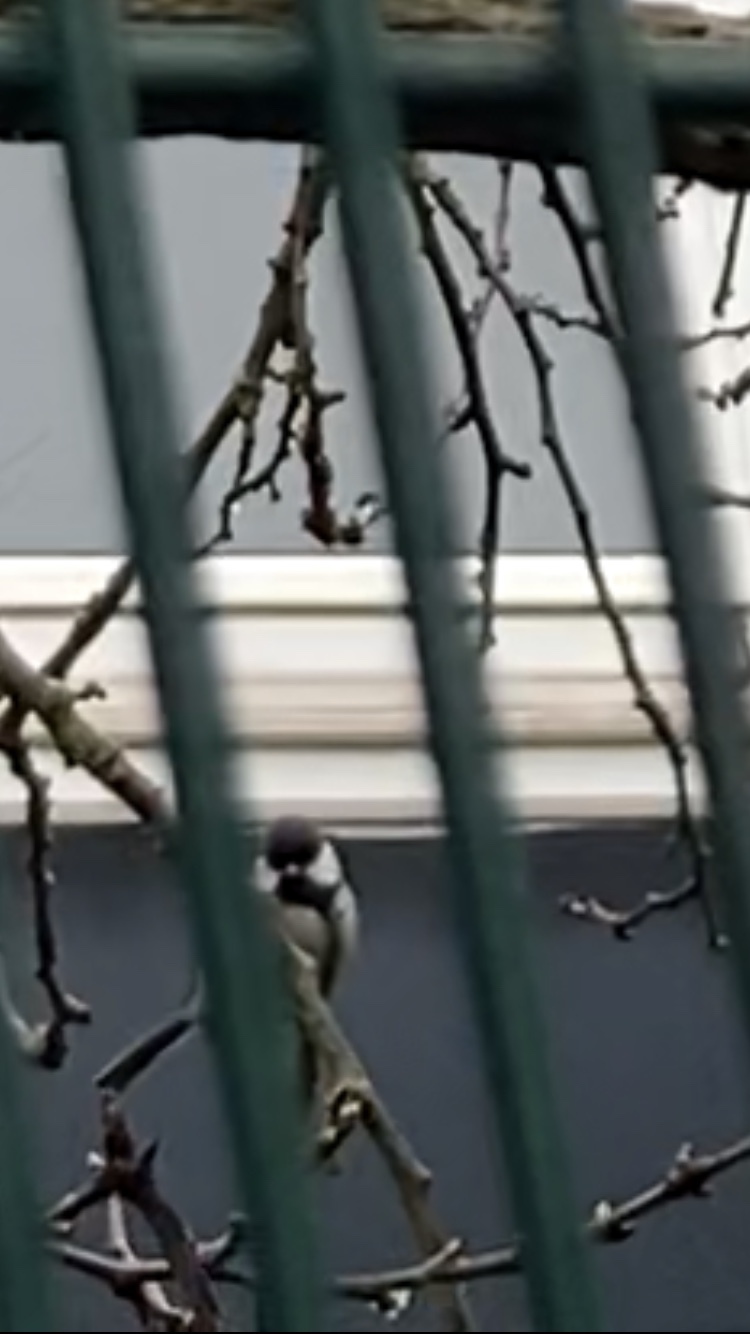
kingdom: Animalia
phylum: Chordata
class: Aves
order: Passeriformes
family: Paridae
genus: Parus
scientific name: Parus major
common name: Great tit
